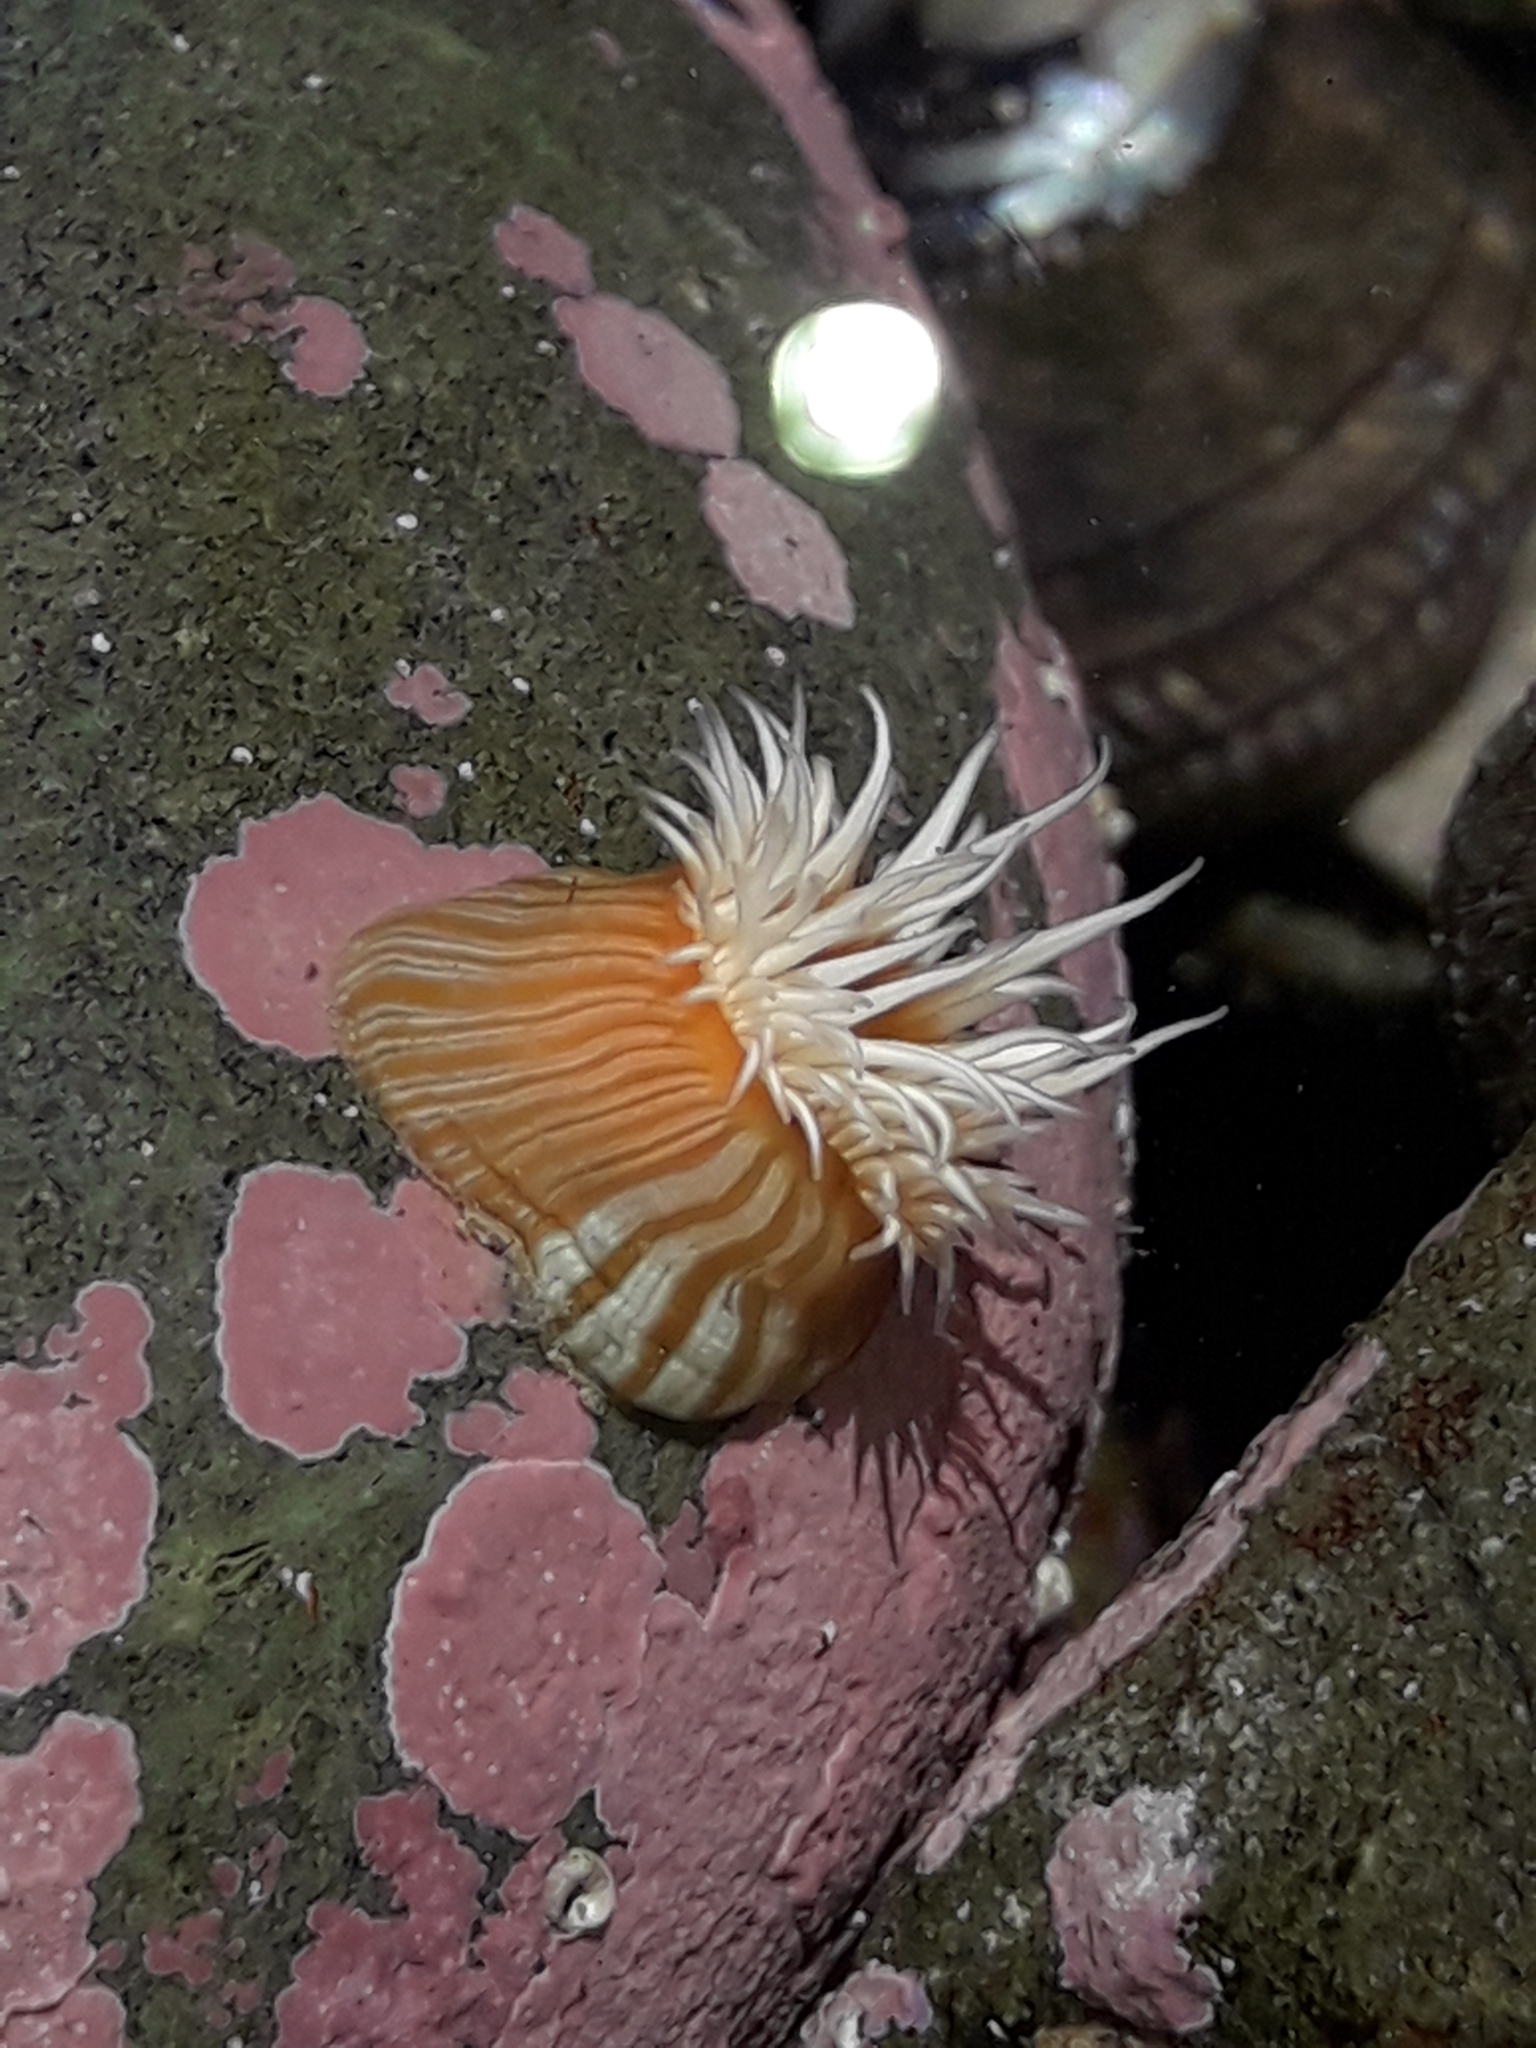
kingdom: Animalia
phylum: Cnidaria
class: Anthozoa
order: Actiniaria
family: Sagartiidae
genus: Anthothoe
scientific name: Anthothoe albocincta
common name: Orange striped anemone
